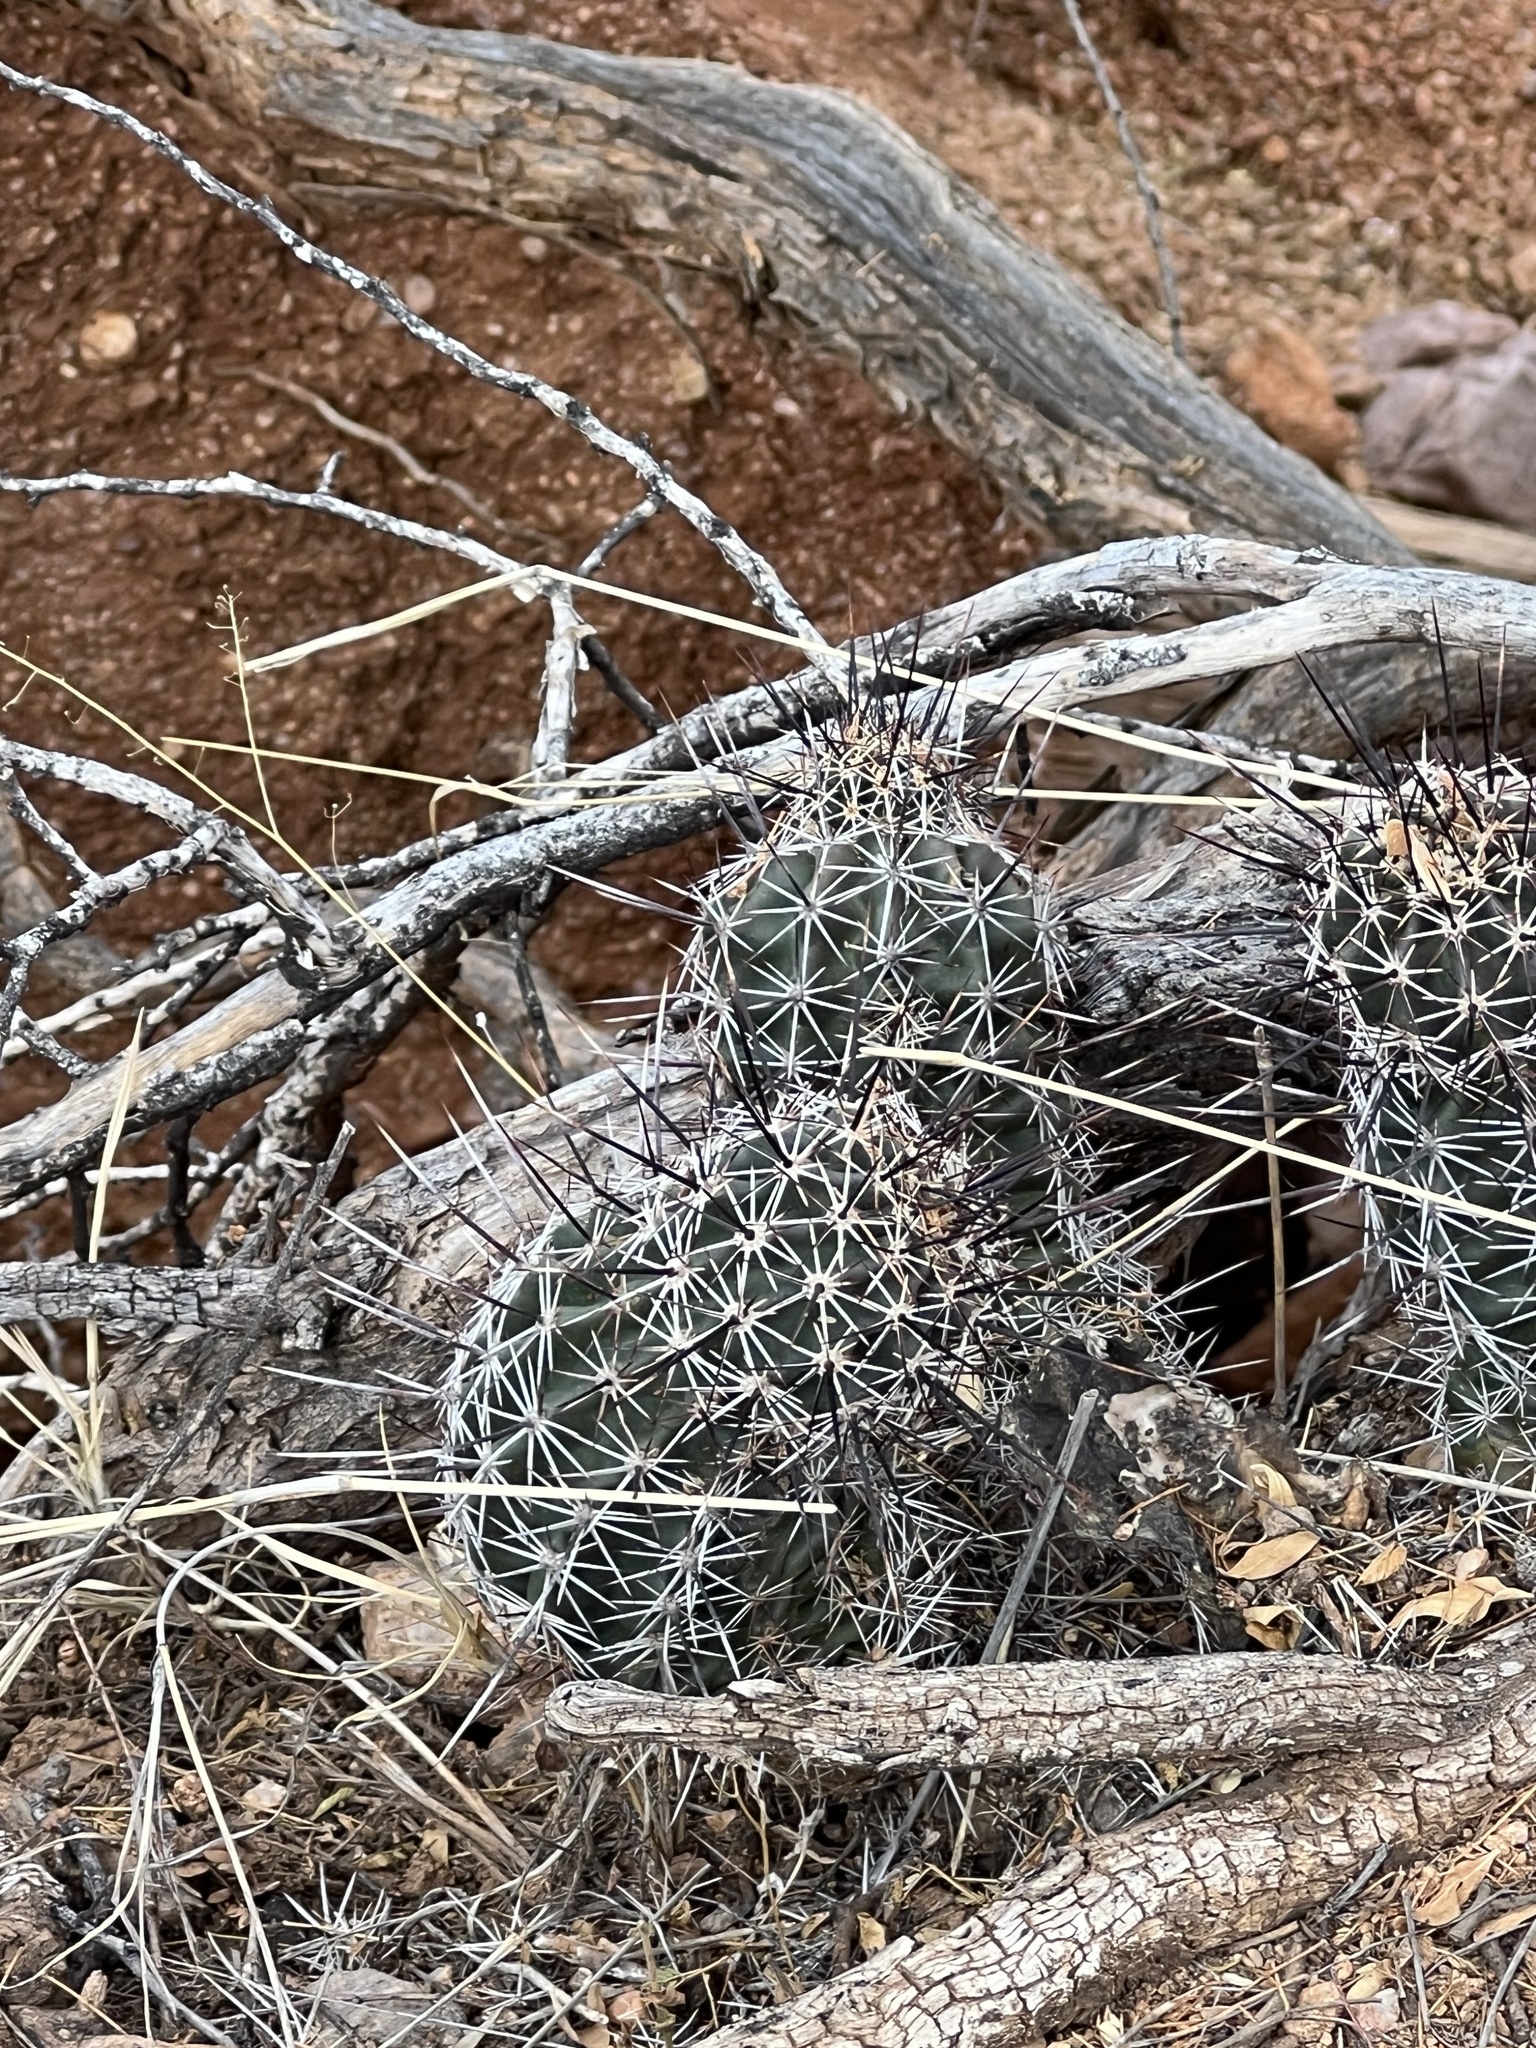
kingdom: Plantae
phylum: Tracheophyta
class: Magnoliopsida
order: Caryophyllales
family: Cactaceae
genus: Echinocereus
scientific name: Echinocereus fasciculatus
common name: Bundle hedgehog
